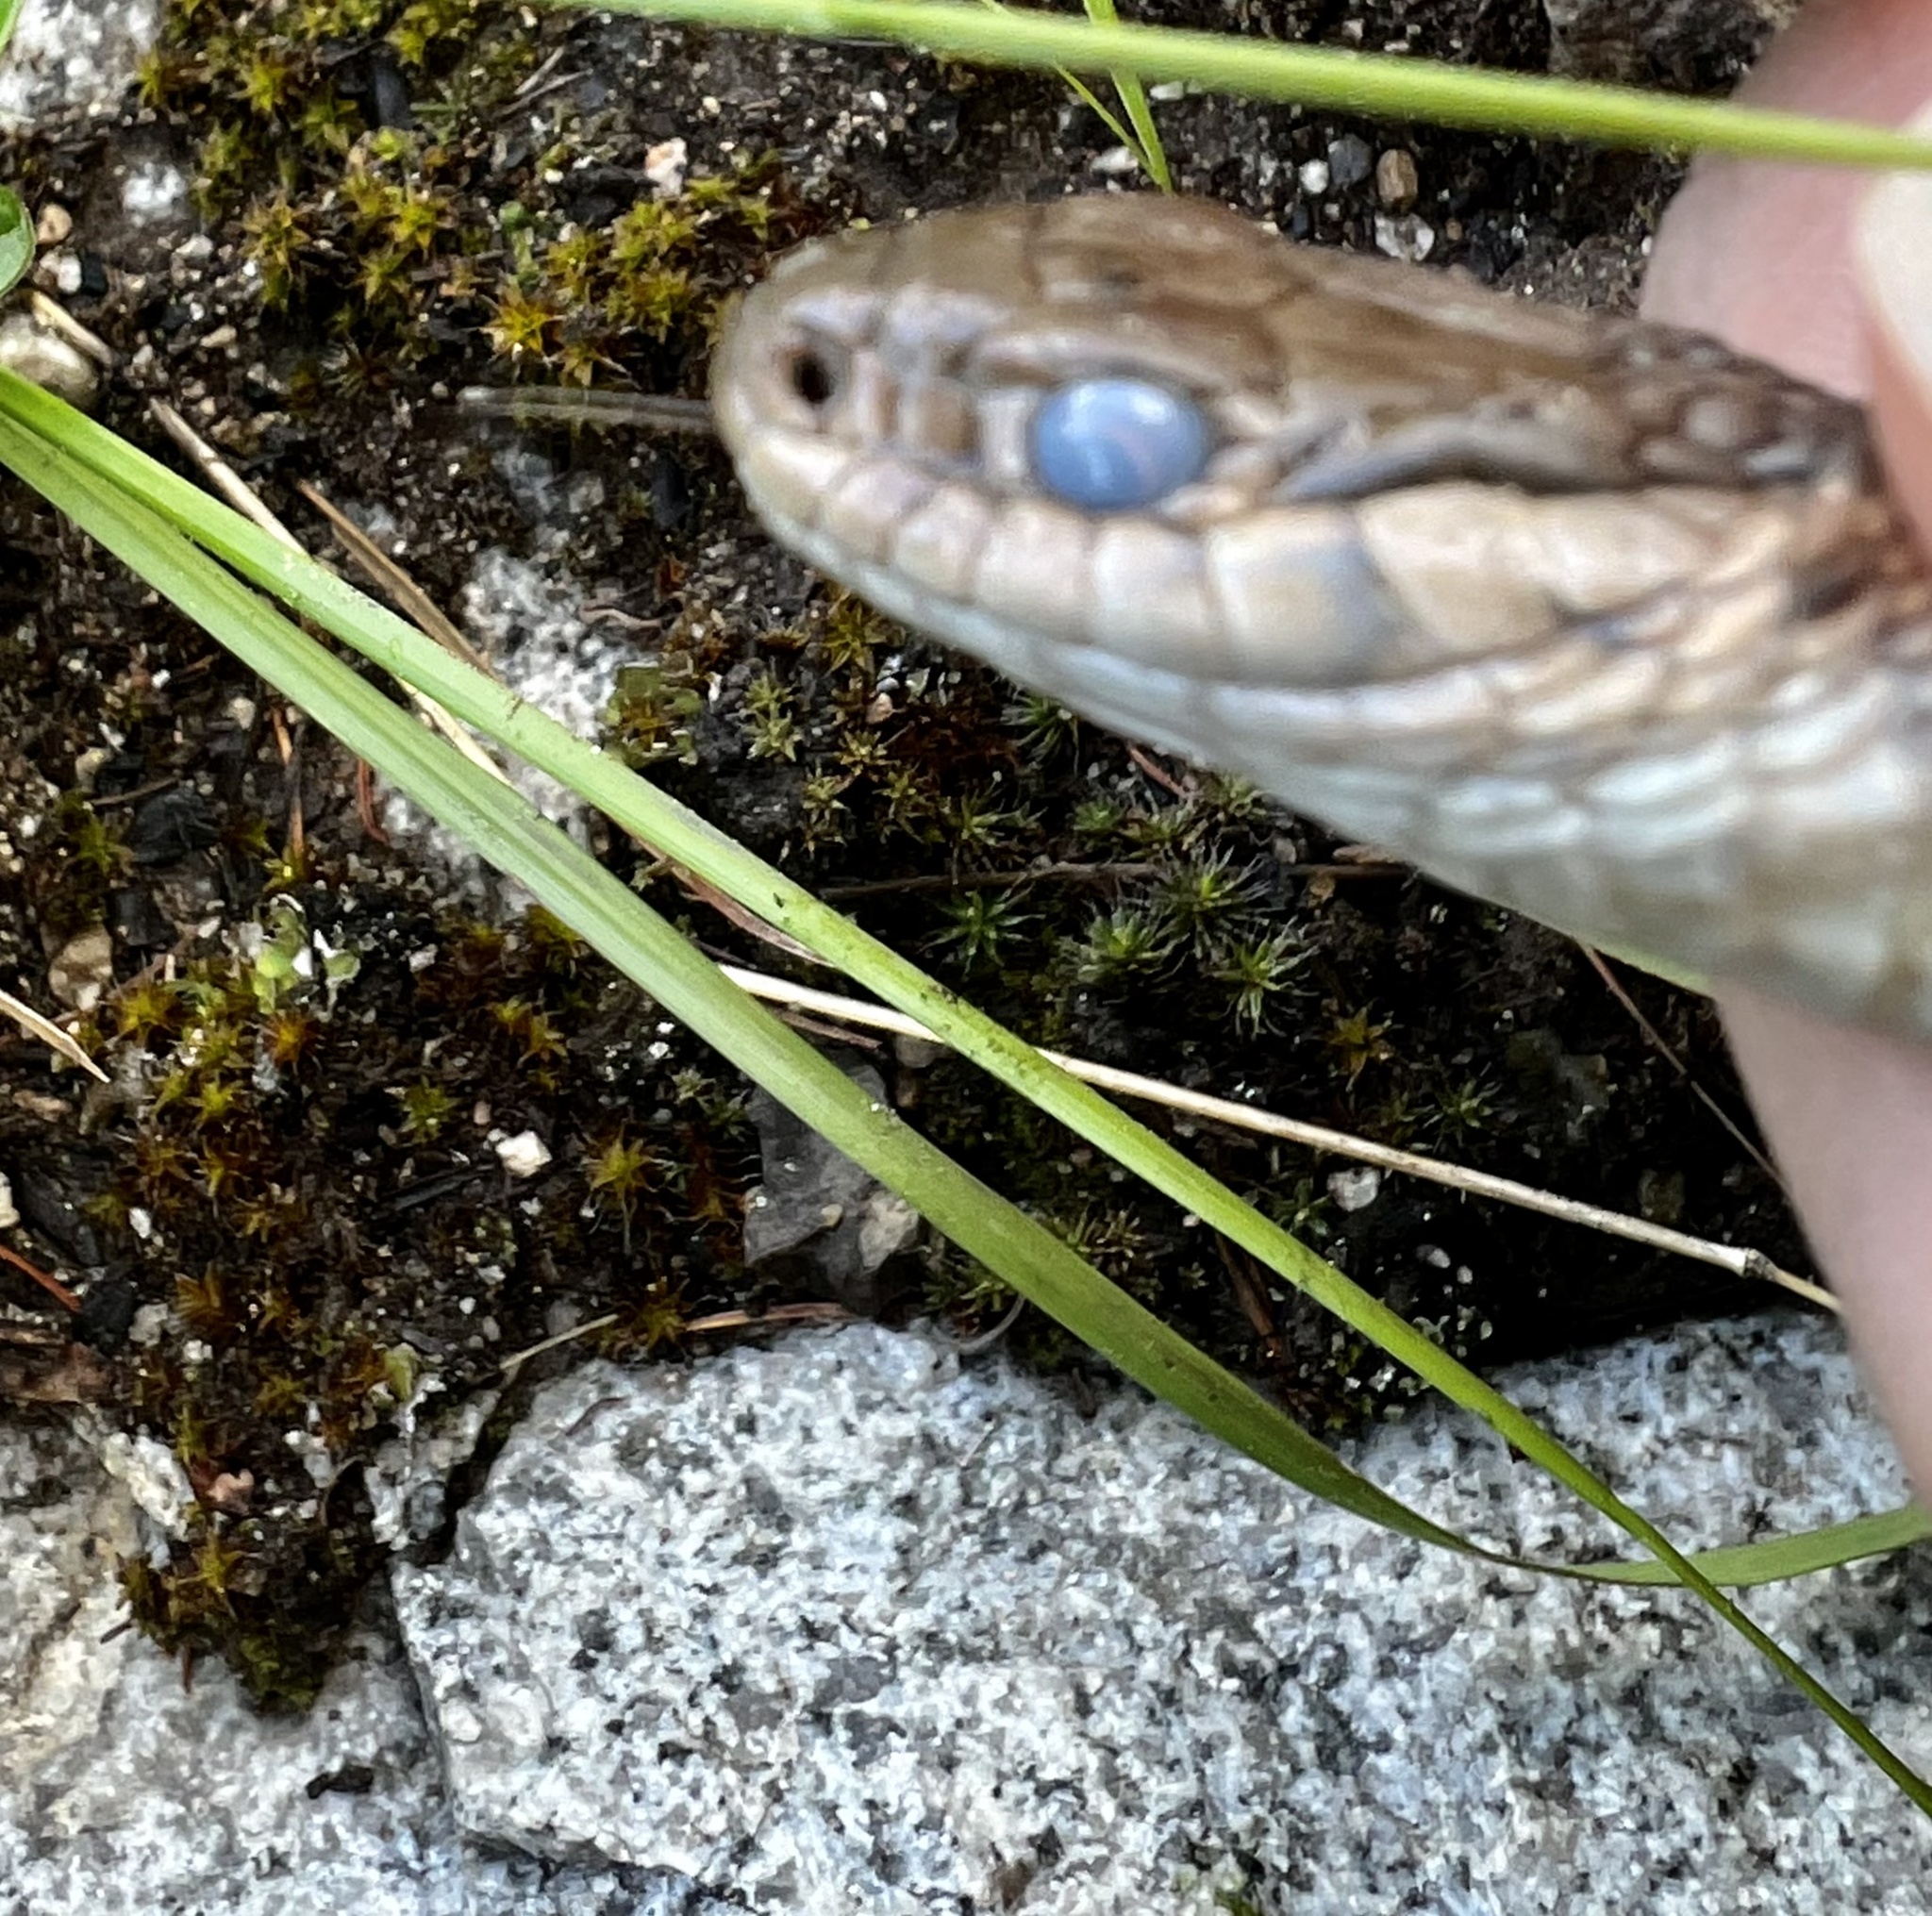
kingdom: Animalia
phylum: Chordata
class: Squamata
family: Colubridae
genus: Thamnophis
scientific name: Thamnophis elegans
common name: Western terrestrial garter snake
